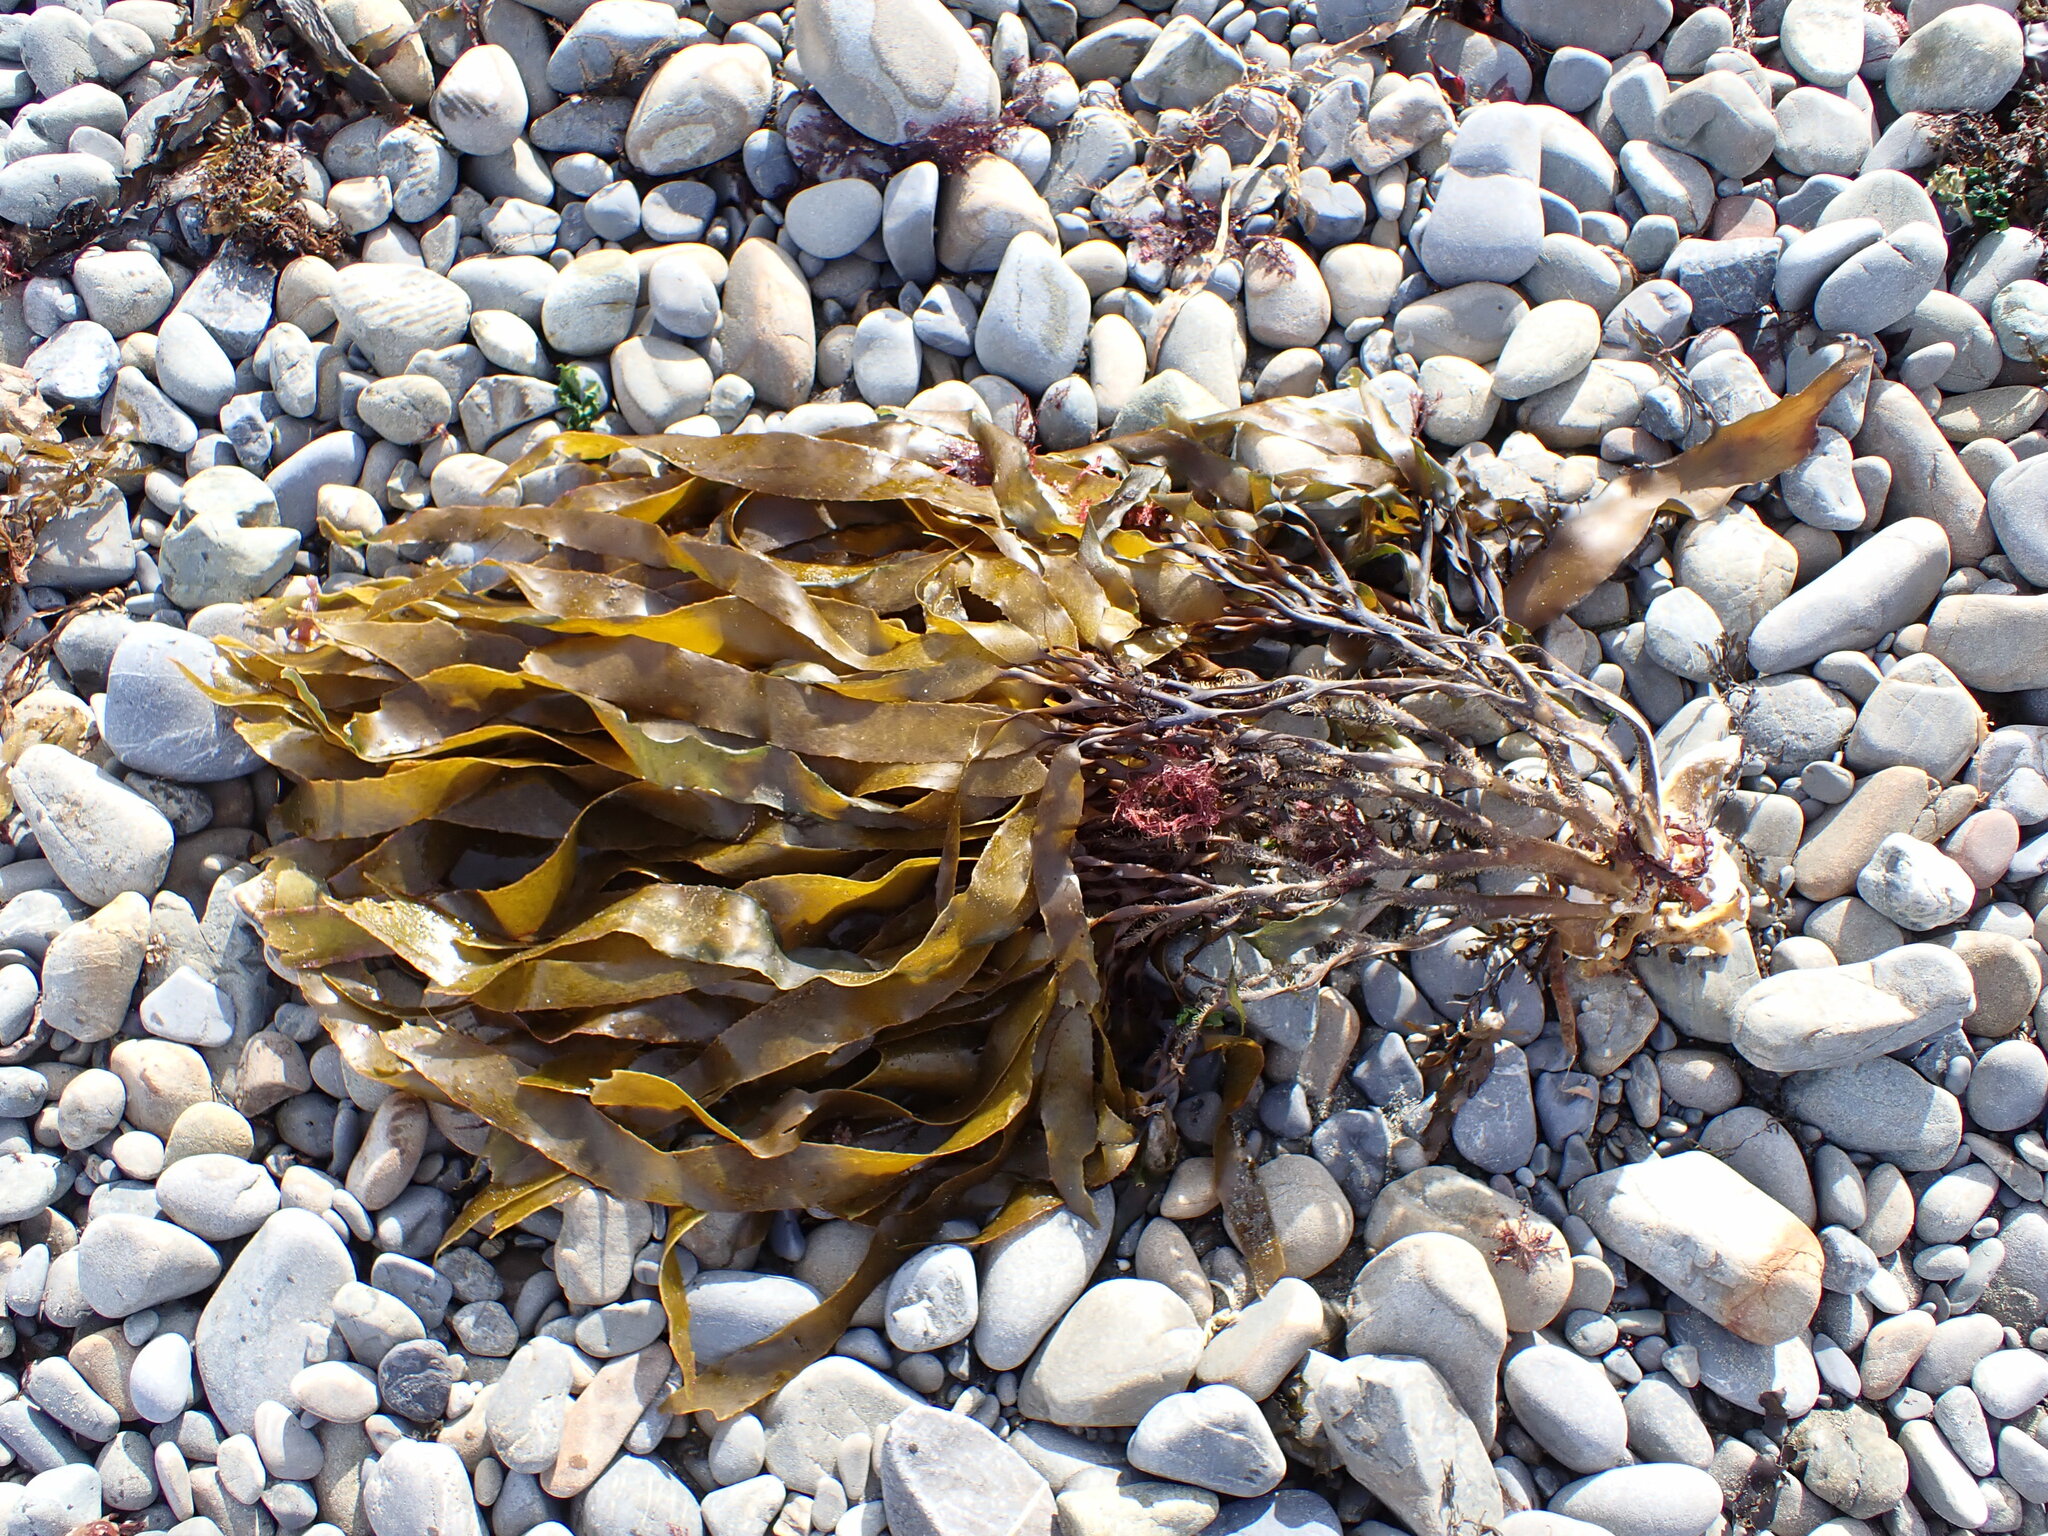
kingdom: Chromista
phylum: Ochrophyta
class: Phaeophyceae
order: Laminariales
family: Lessoniaceae
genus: Lessonia
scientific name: Lessonia variegata
